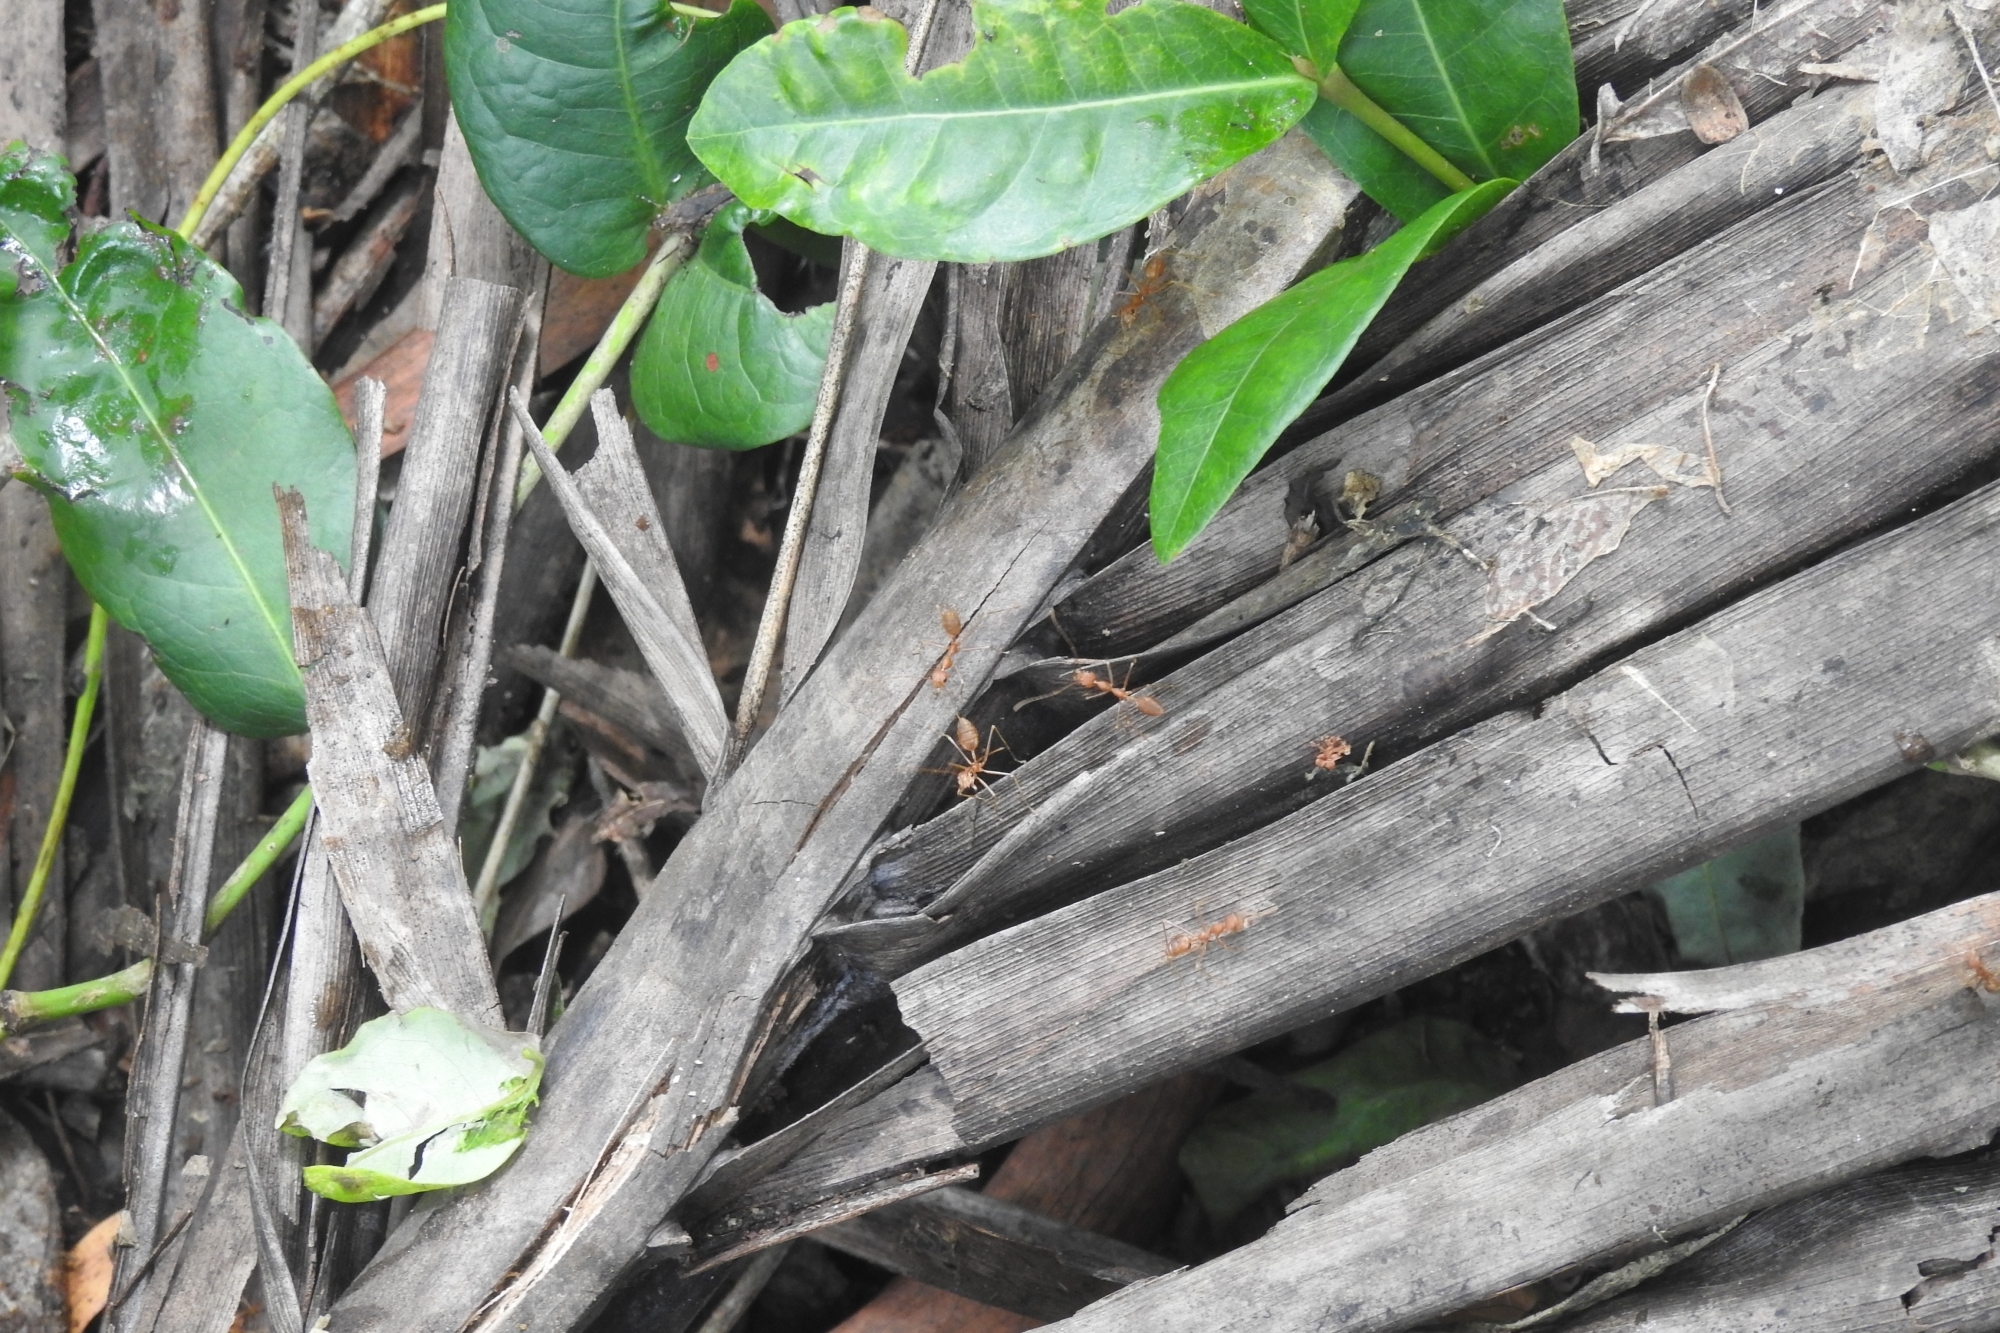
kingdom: Animalia
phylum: Arthropoda
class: Insecta
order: Hymenoptera
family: Formicidae
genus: Oecophylla
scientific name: Oecophylla smaragdina
